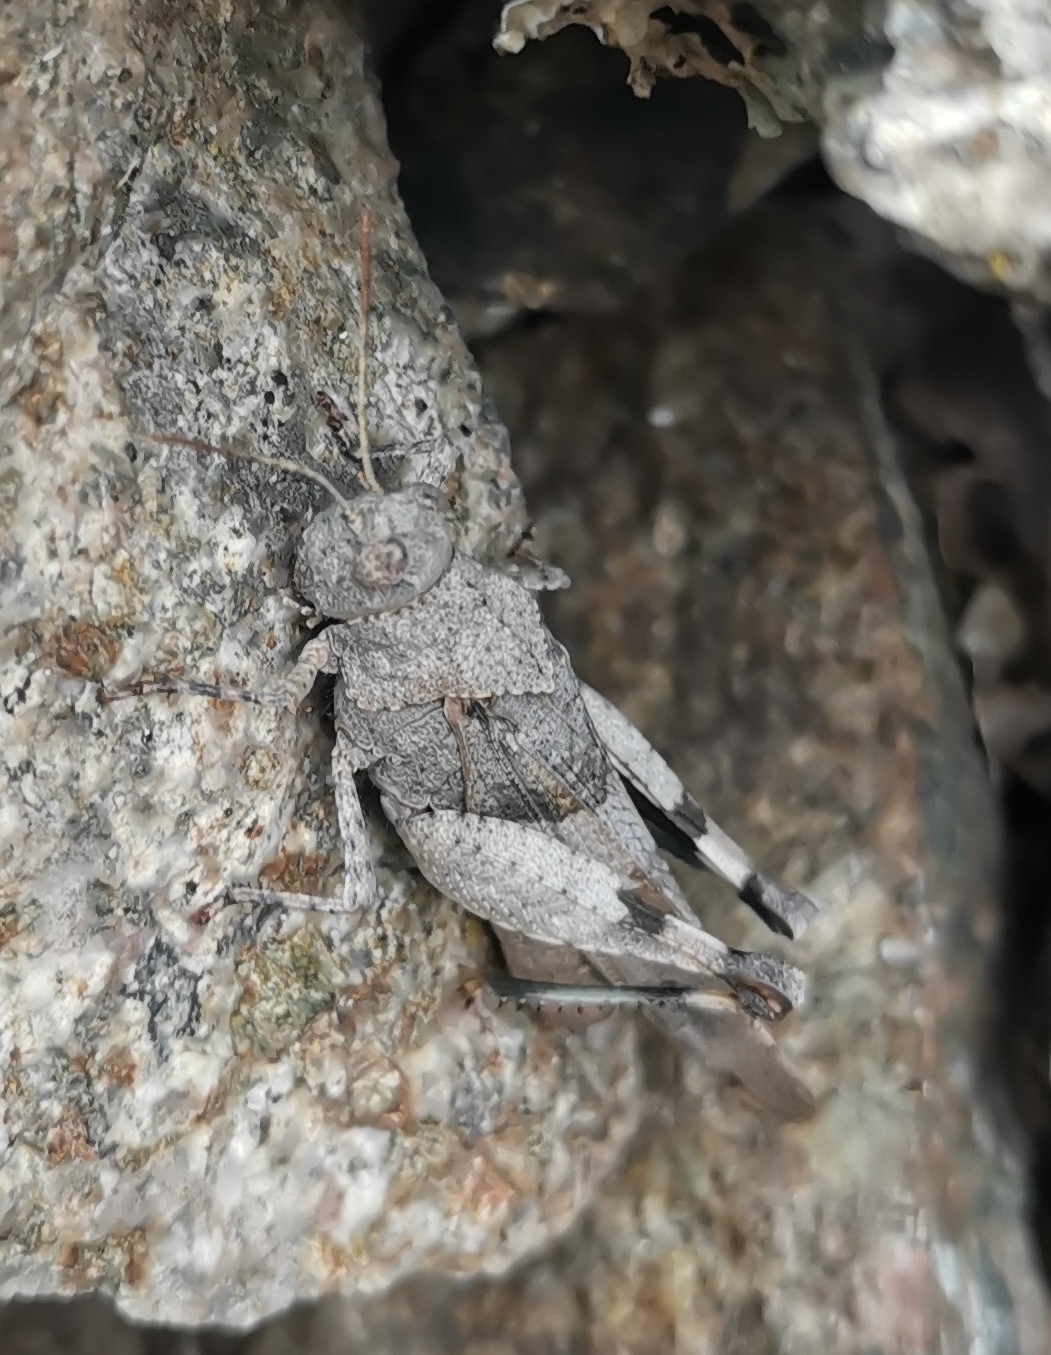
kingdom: Animalia
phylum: Arthropoda
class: Insecta
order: Orthoptera
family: Acrididae
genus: Oedipoda
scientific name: Oedipoda caerulescens
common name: Blue-winged grasshopper
